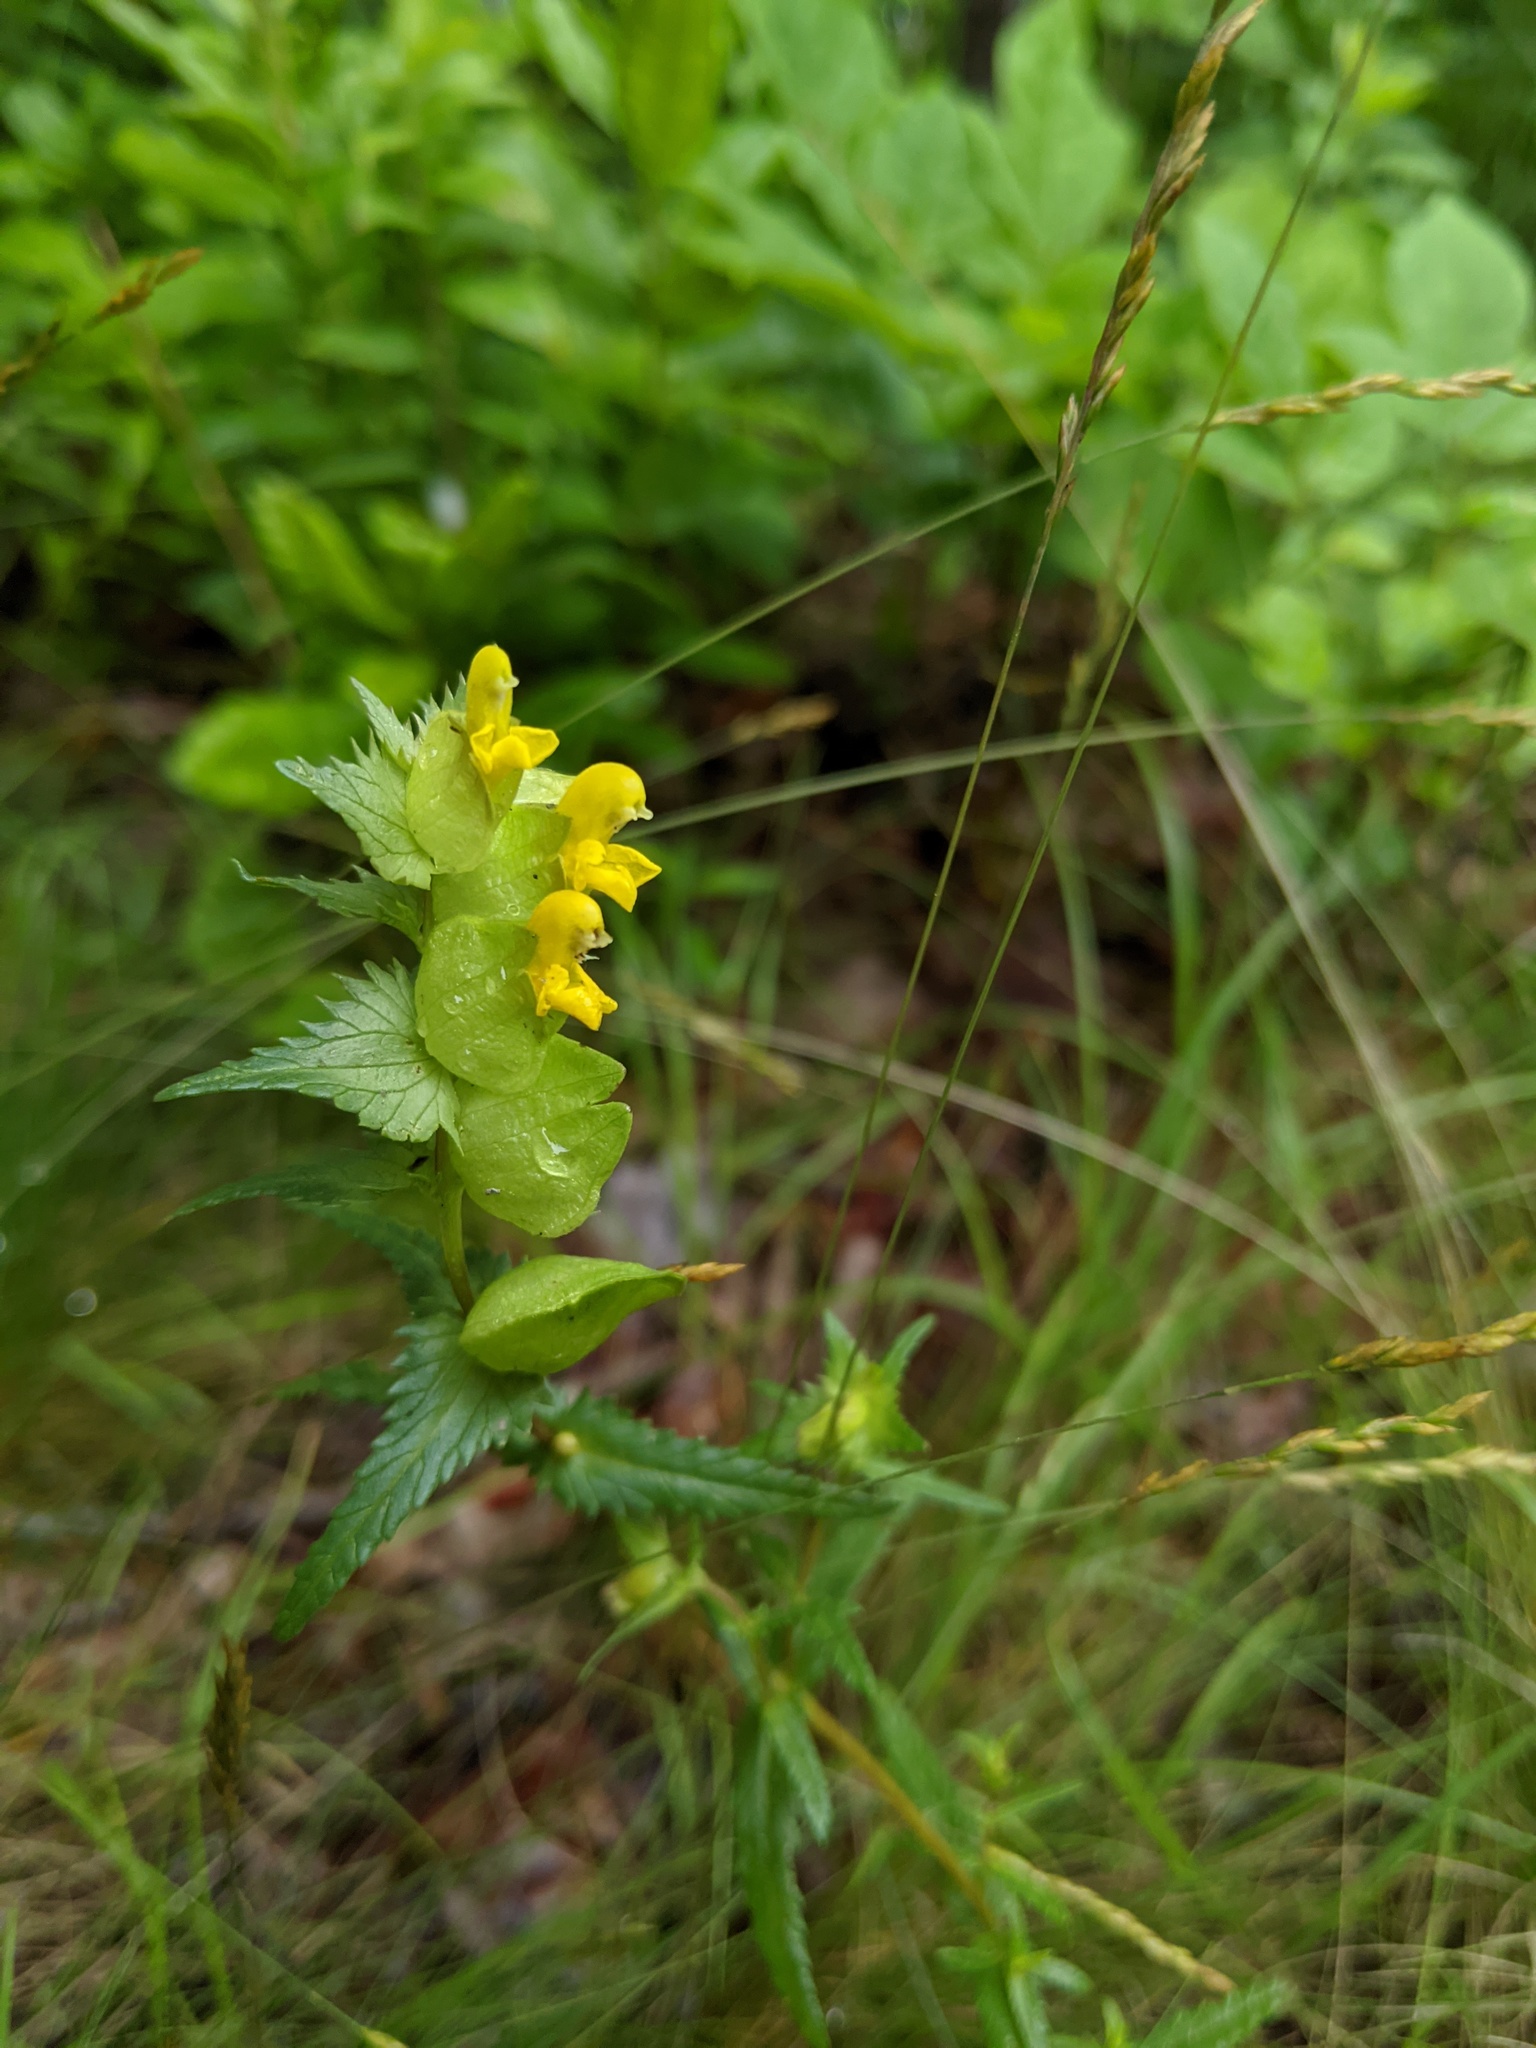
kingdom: Plantae
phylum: Tracheophyta
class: Magnoliopsida
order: Lamiales
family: Orobanchaceae
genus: Rhinanthus
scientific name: Rhinanthus minor
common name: Yellow-rattle
